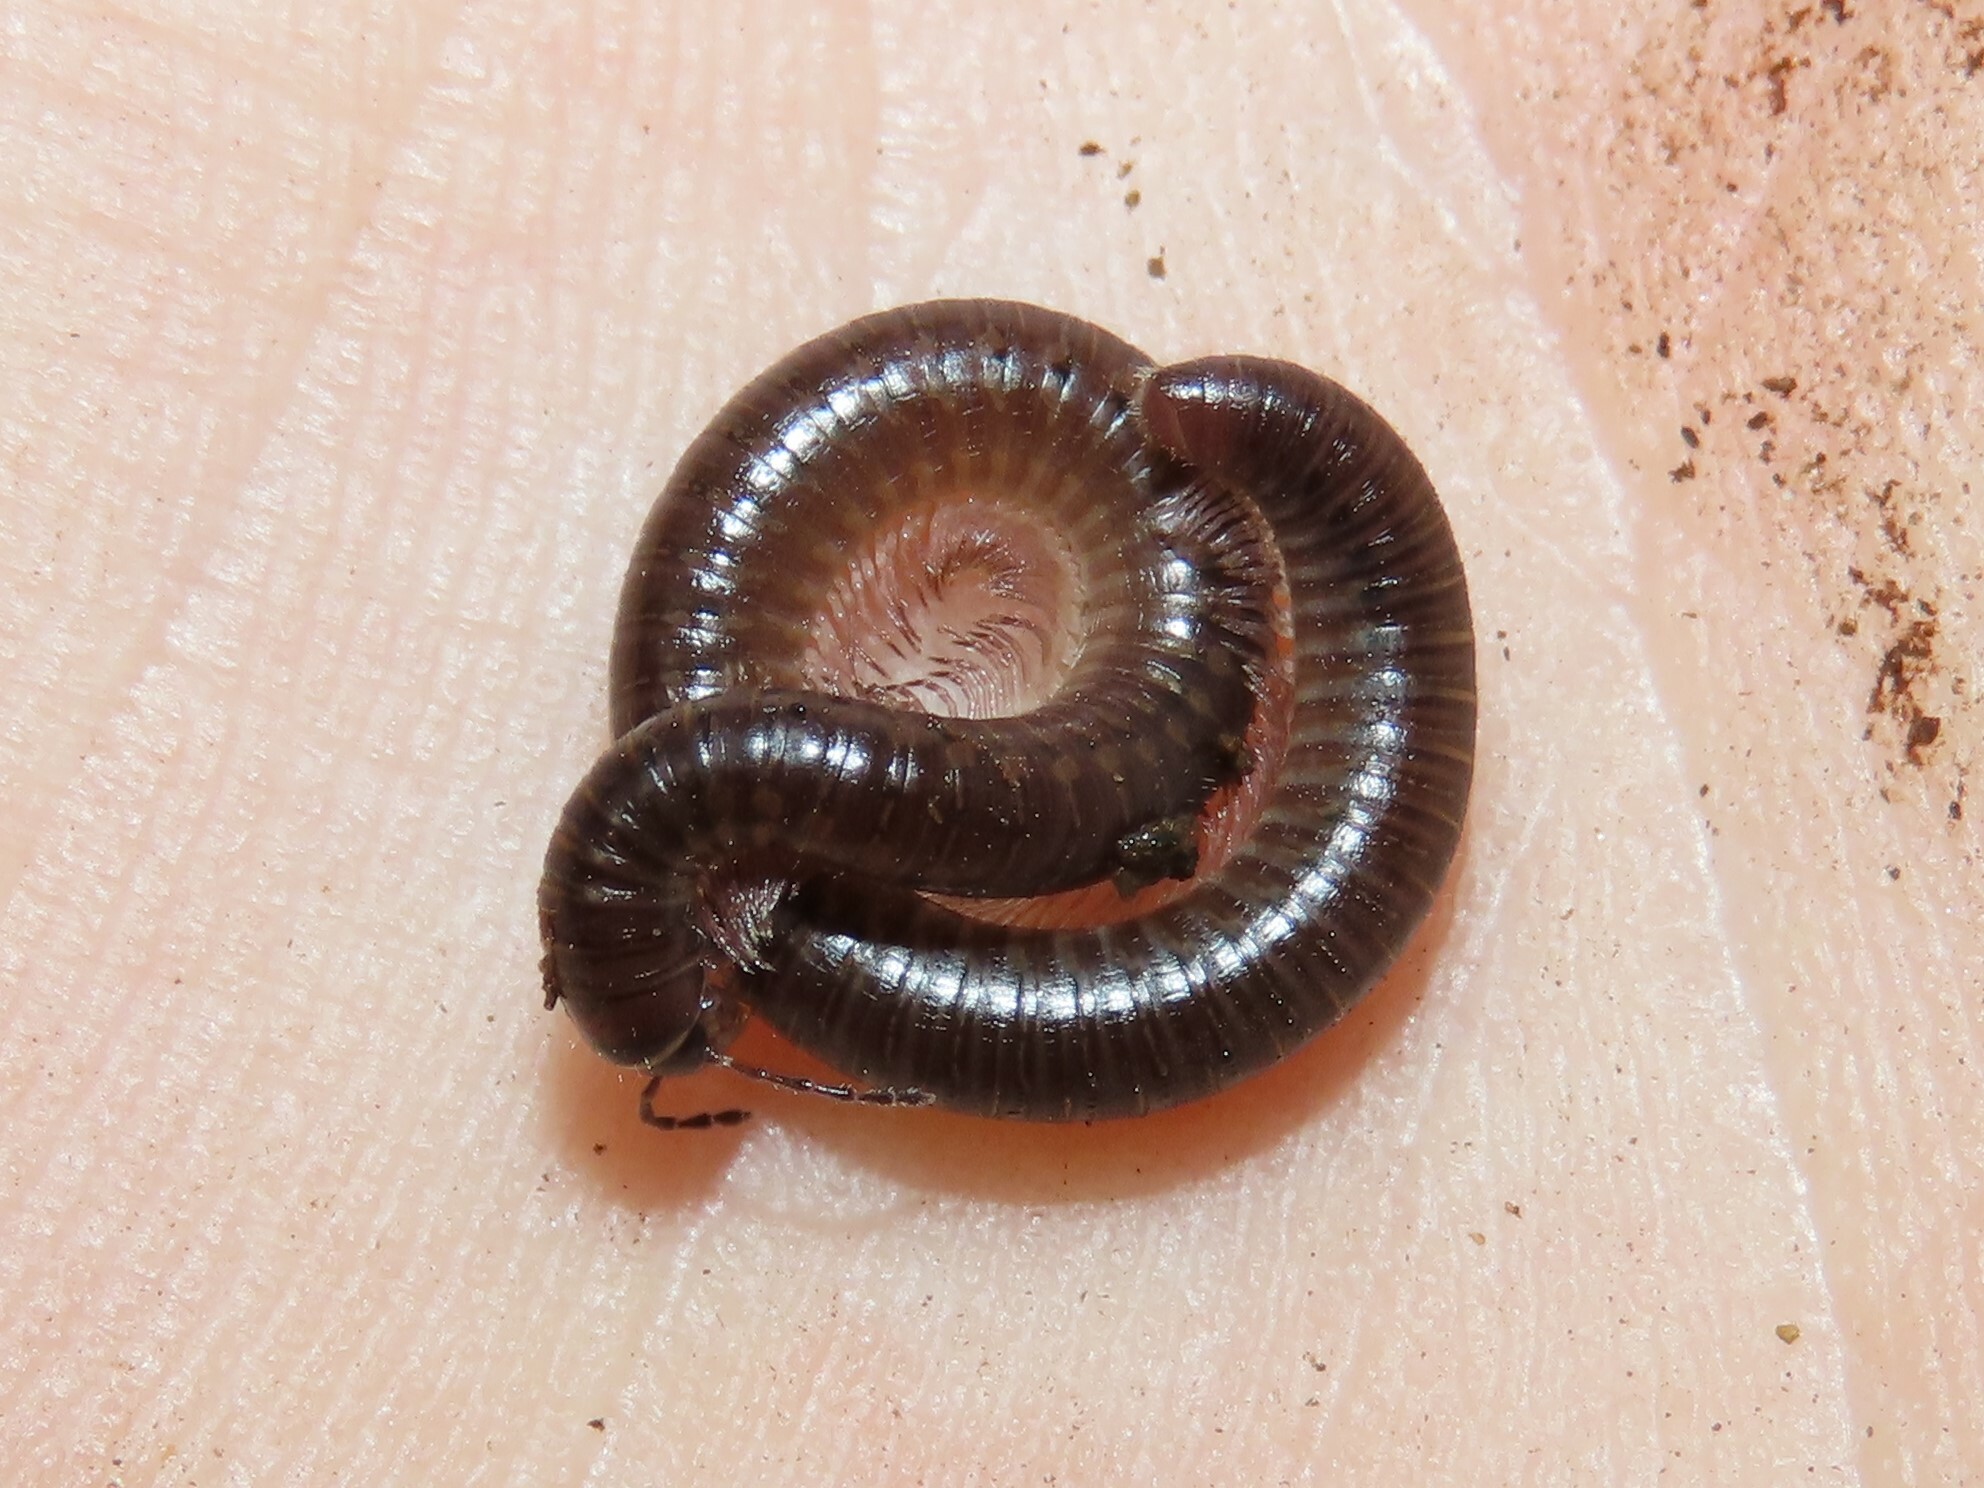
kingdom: Animalia
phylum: Arthropoda
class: Diplopoda
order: Julida
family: Parajulidae
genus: Ptyoiulus
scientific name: Ptyoiulus impressus
